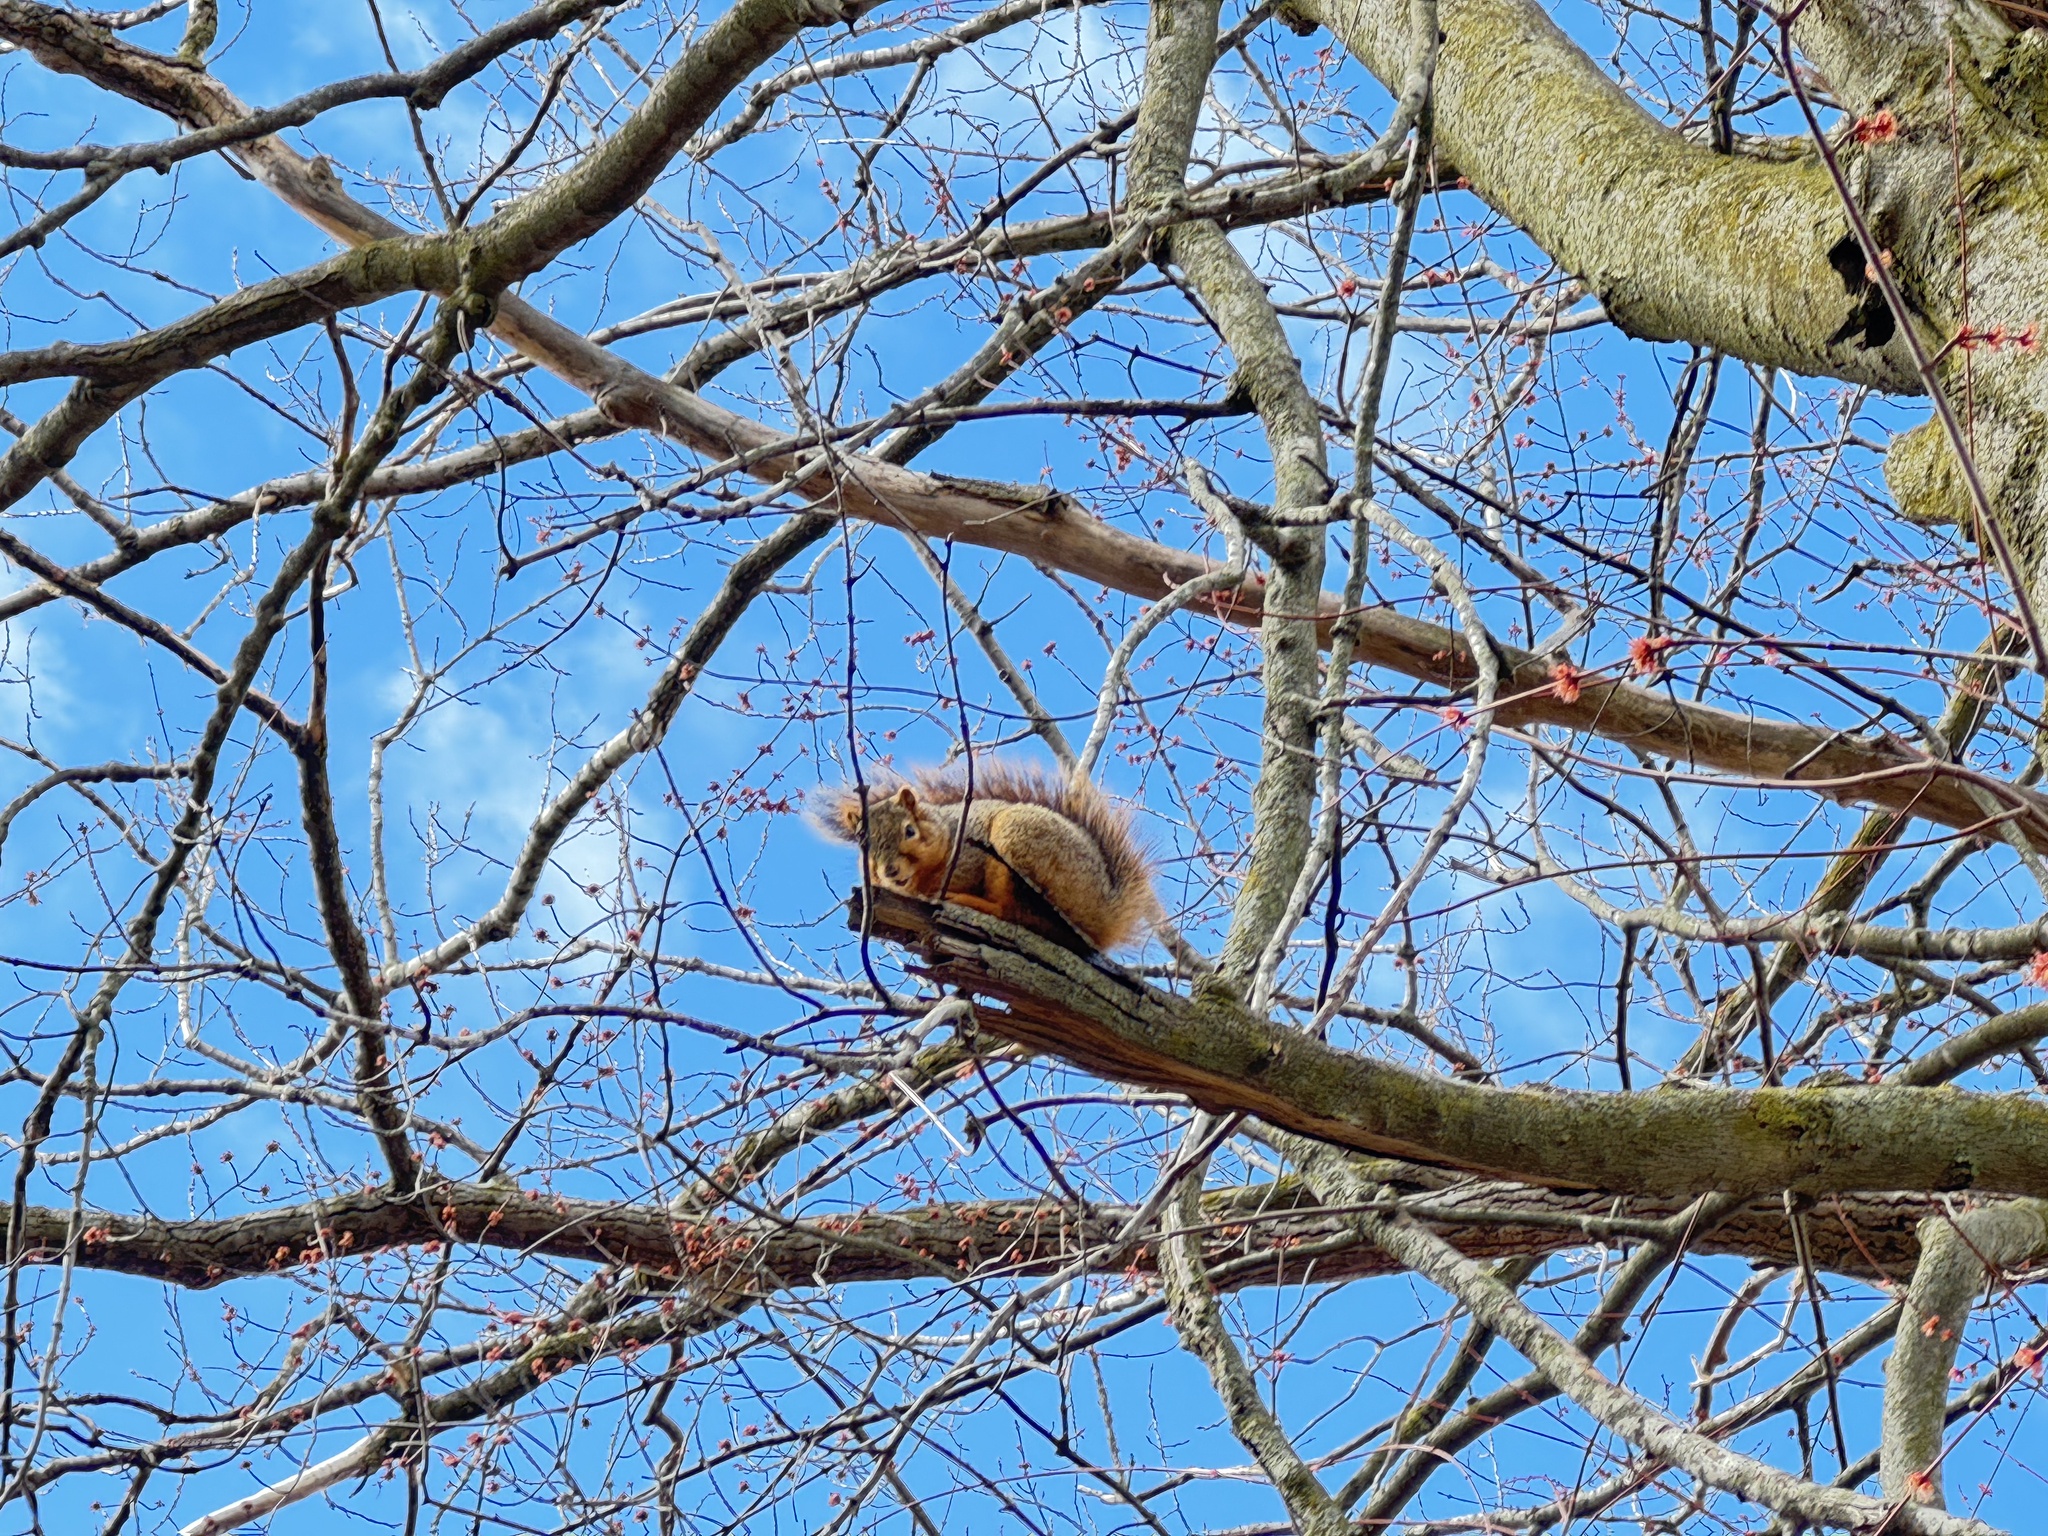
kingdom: Animalia
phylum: Chordata
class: Mammalia
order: Rodentia
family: Sciuridae
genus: Sciurus
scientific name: Sciurus niger
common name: Fox squirrel
